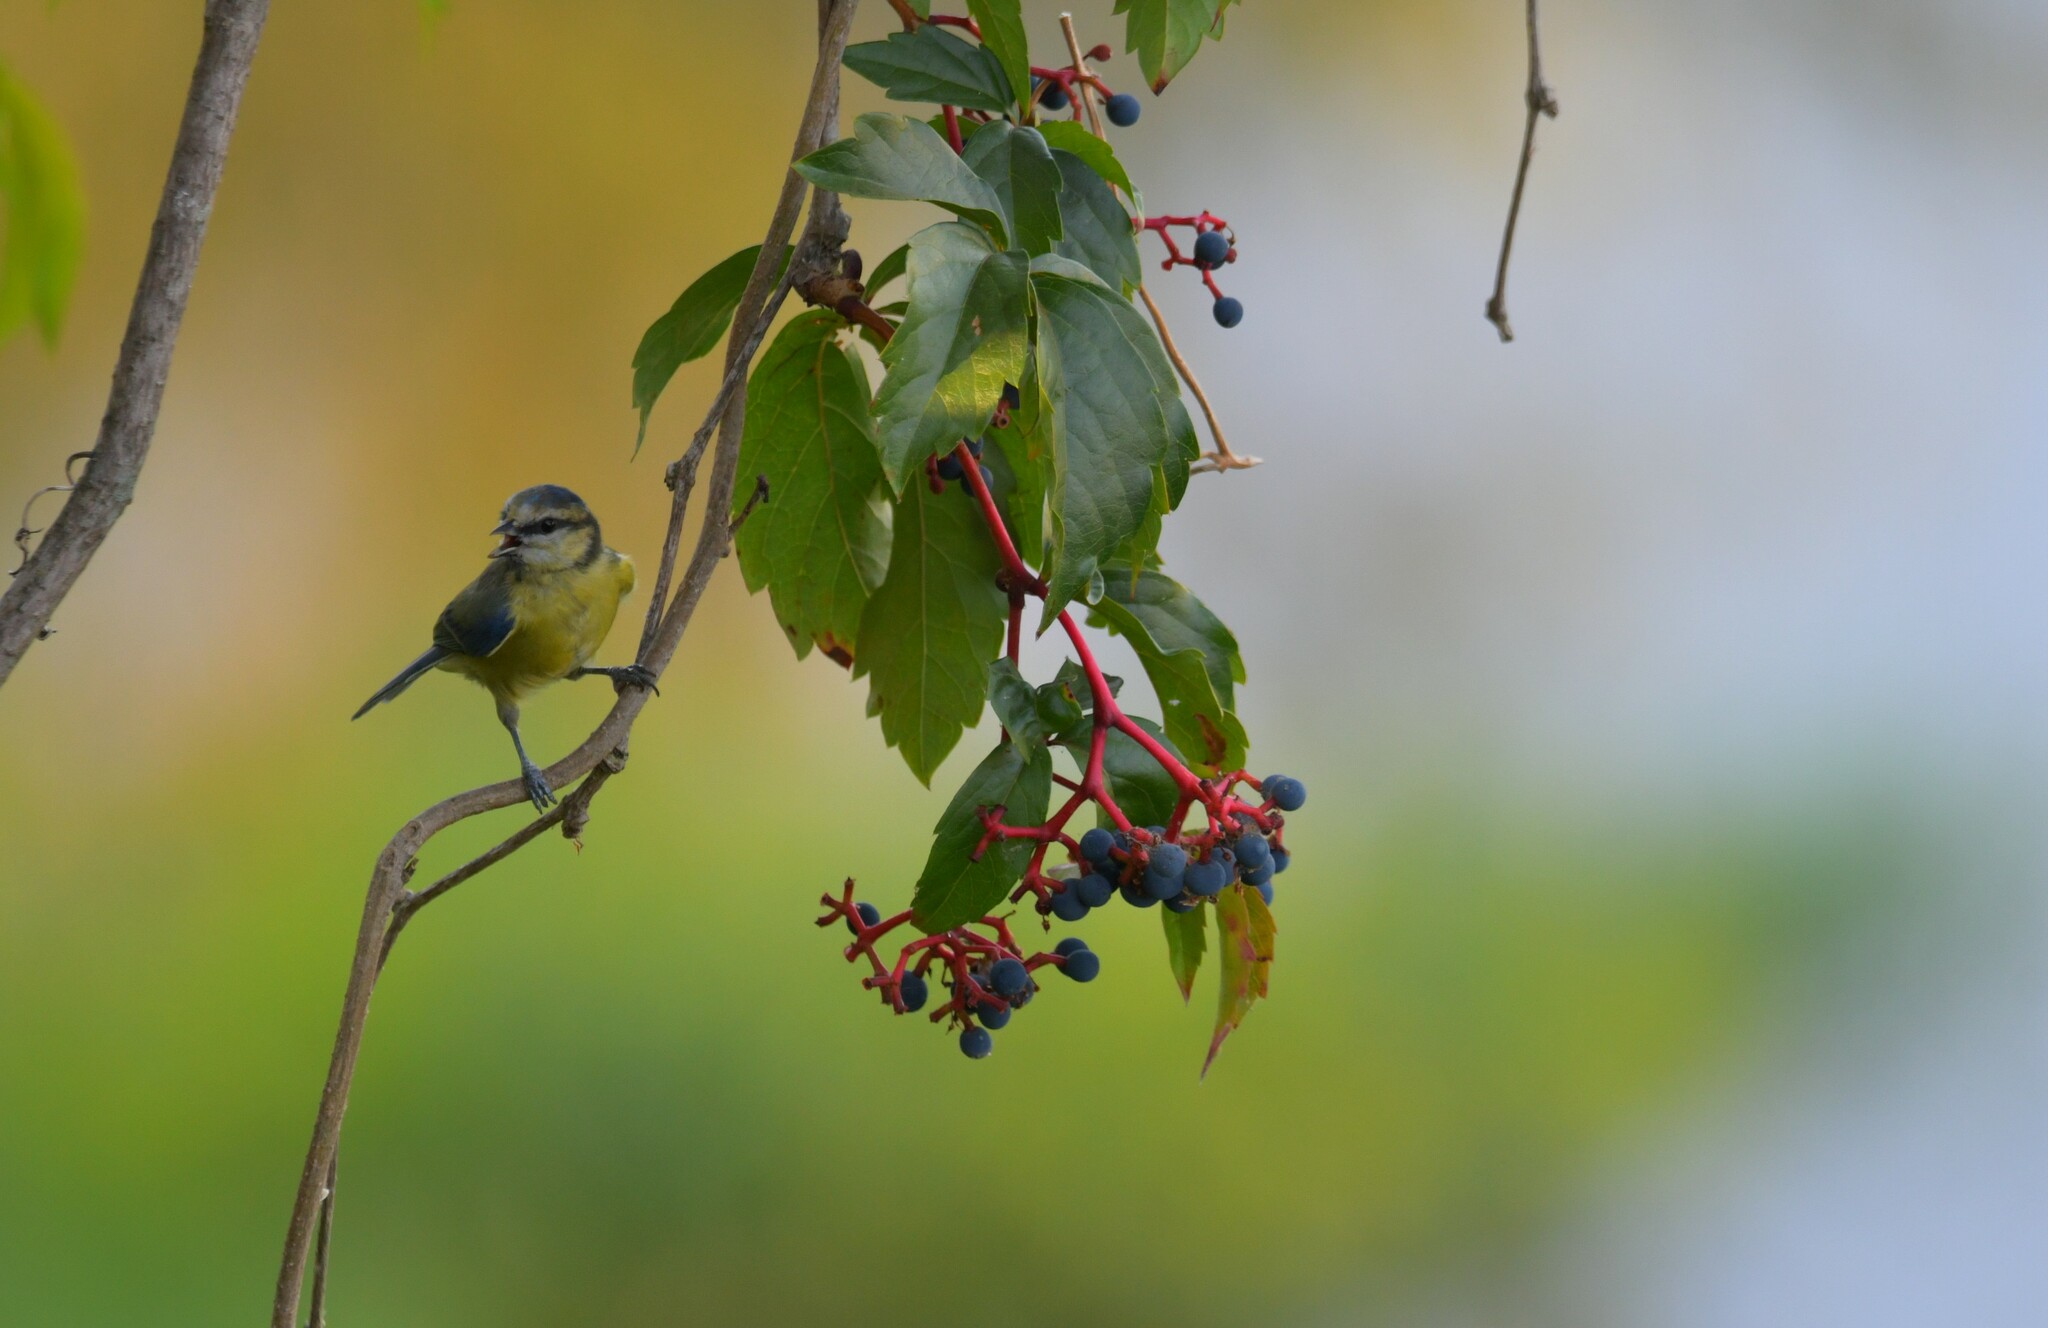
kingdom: Animalia
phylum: Chordata
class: Aves
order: Passeriformes
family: Paridae
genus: Cyanistes
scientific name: Cyanistes caeruleus
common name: Eurasian blue tit
